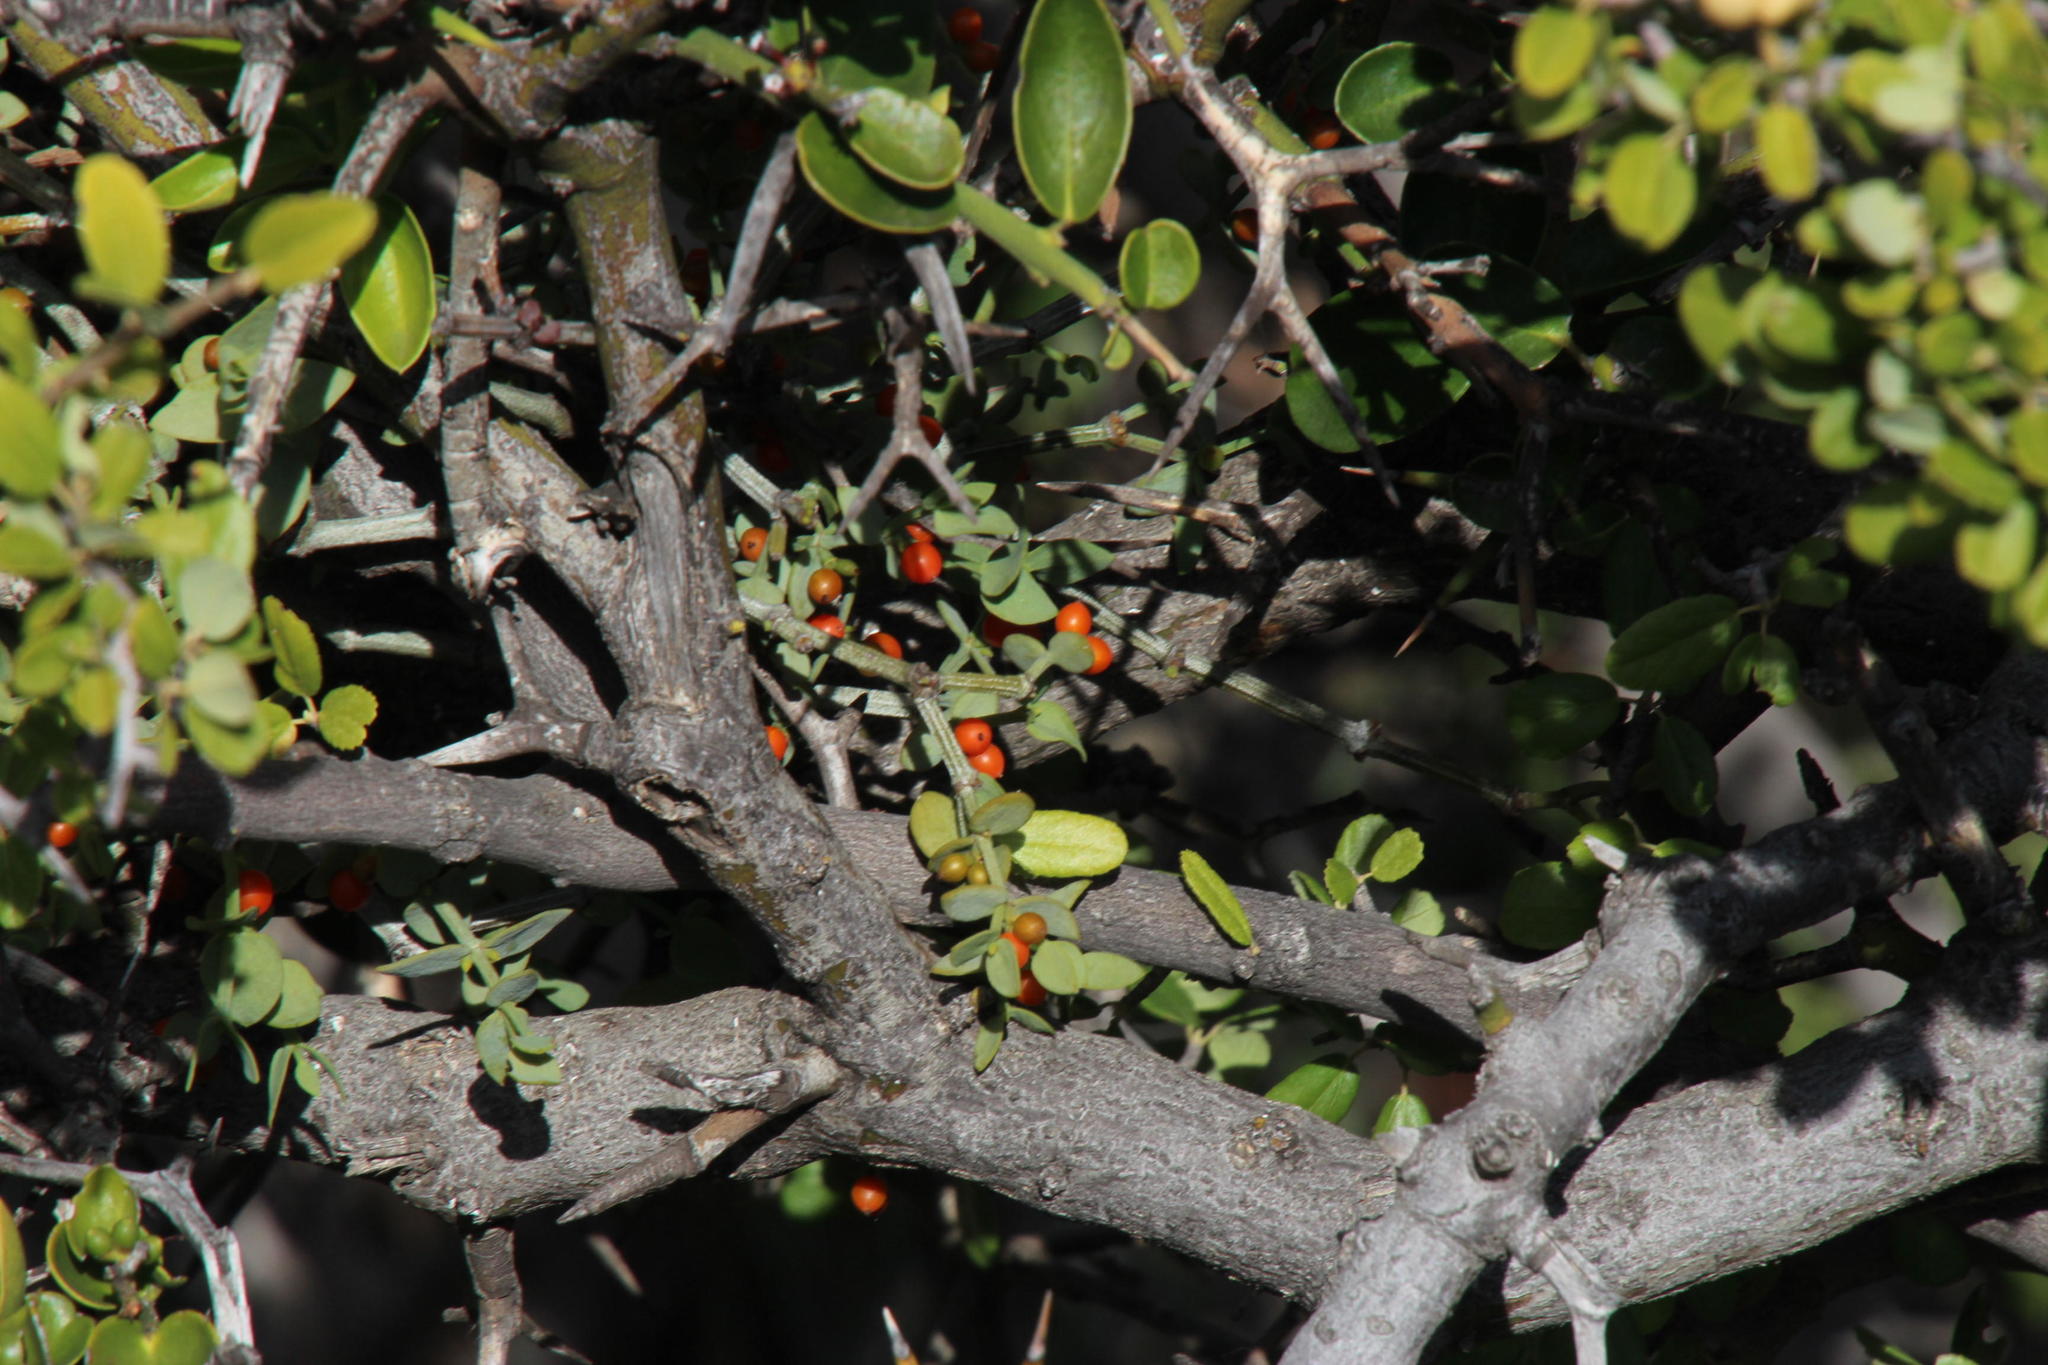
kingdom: Plantae
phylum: Tracheophyta
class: Magnoliopsida
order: Santalales
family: Viscaceae
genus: Viscum
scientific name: Viscum rotundifolium
